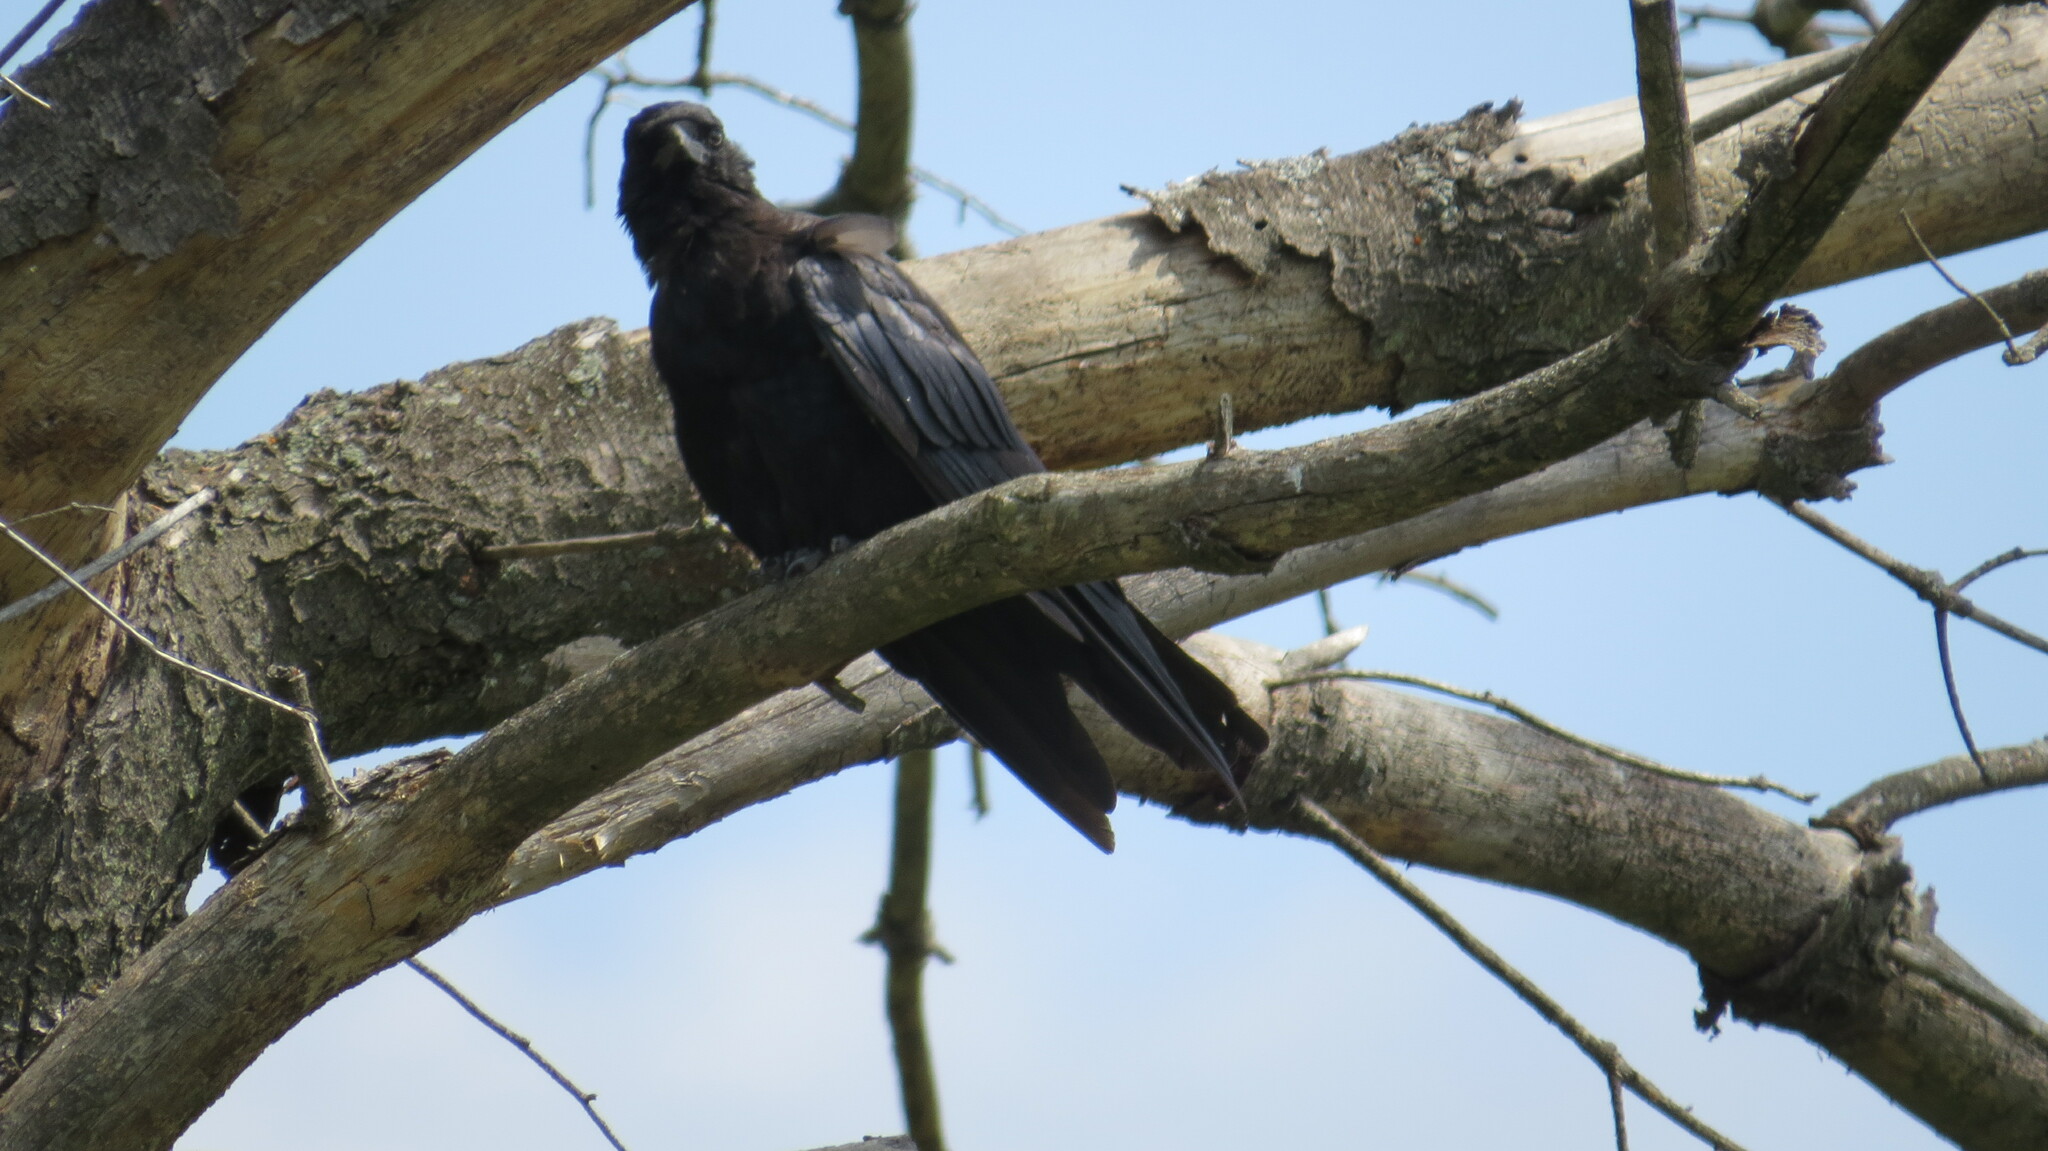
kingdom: Animalia
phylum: Chordata
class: Aves
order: Passeriformes
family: Corvidae
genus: Corvus
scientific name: Corvus brachyrhynchos
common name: American crow
